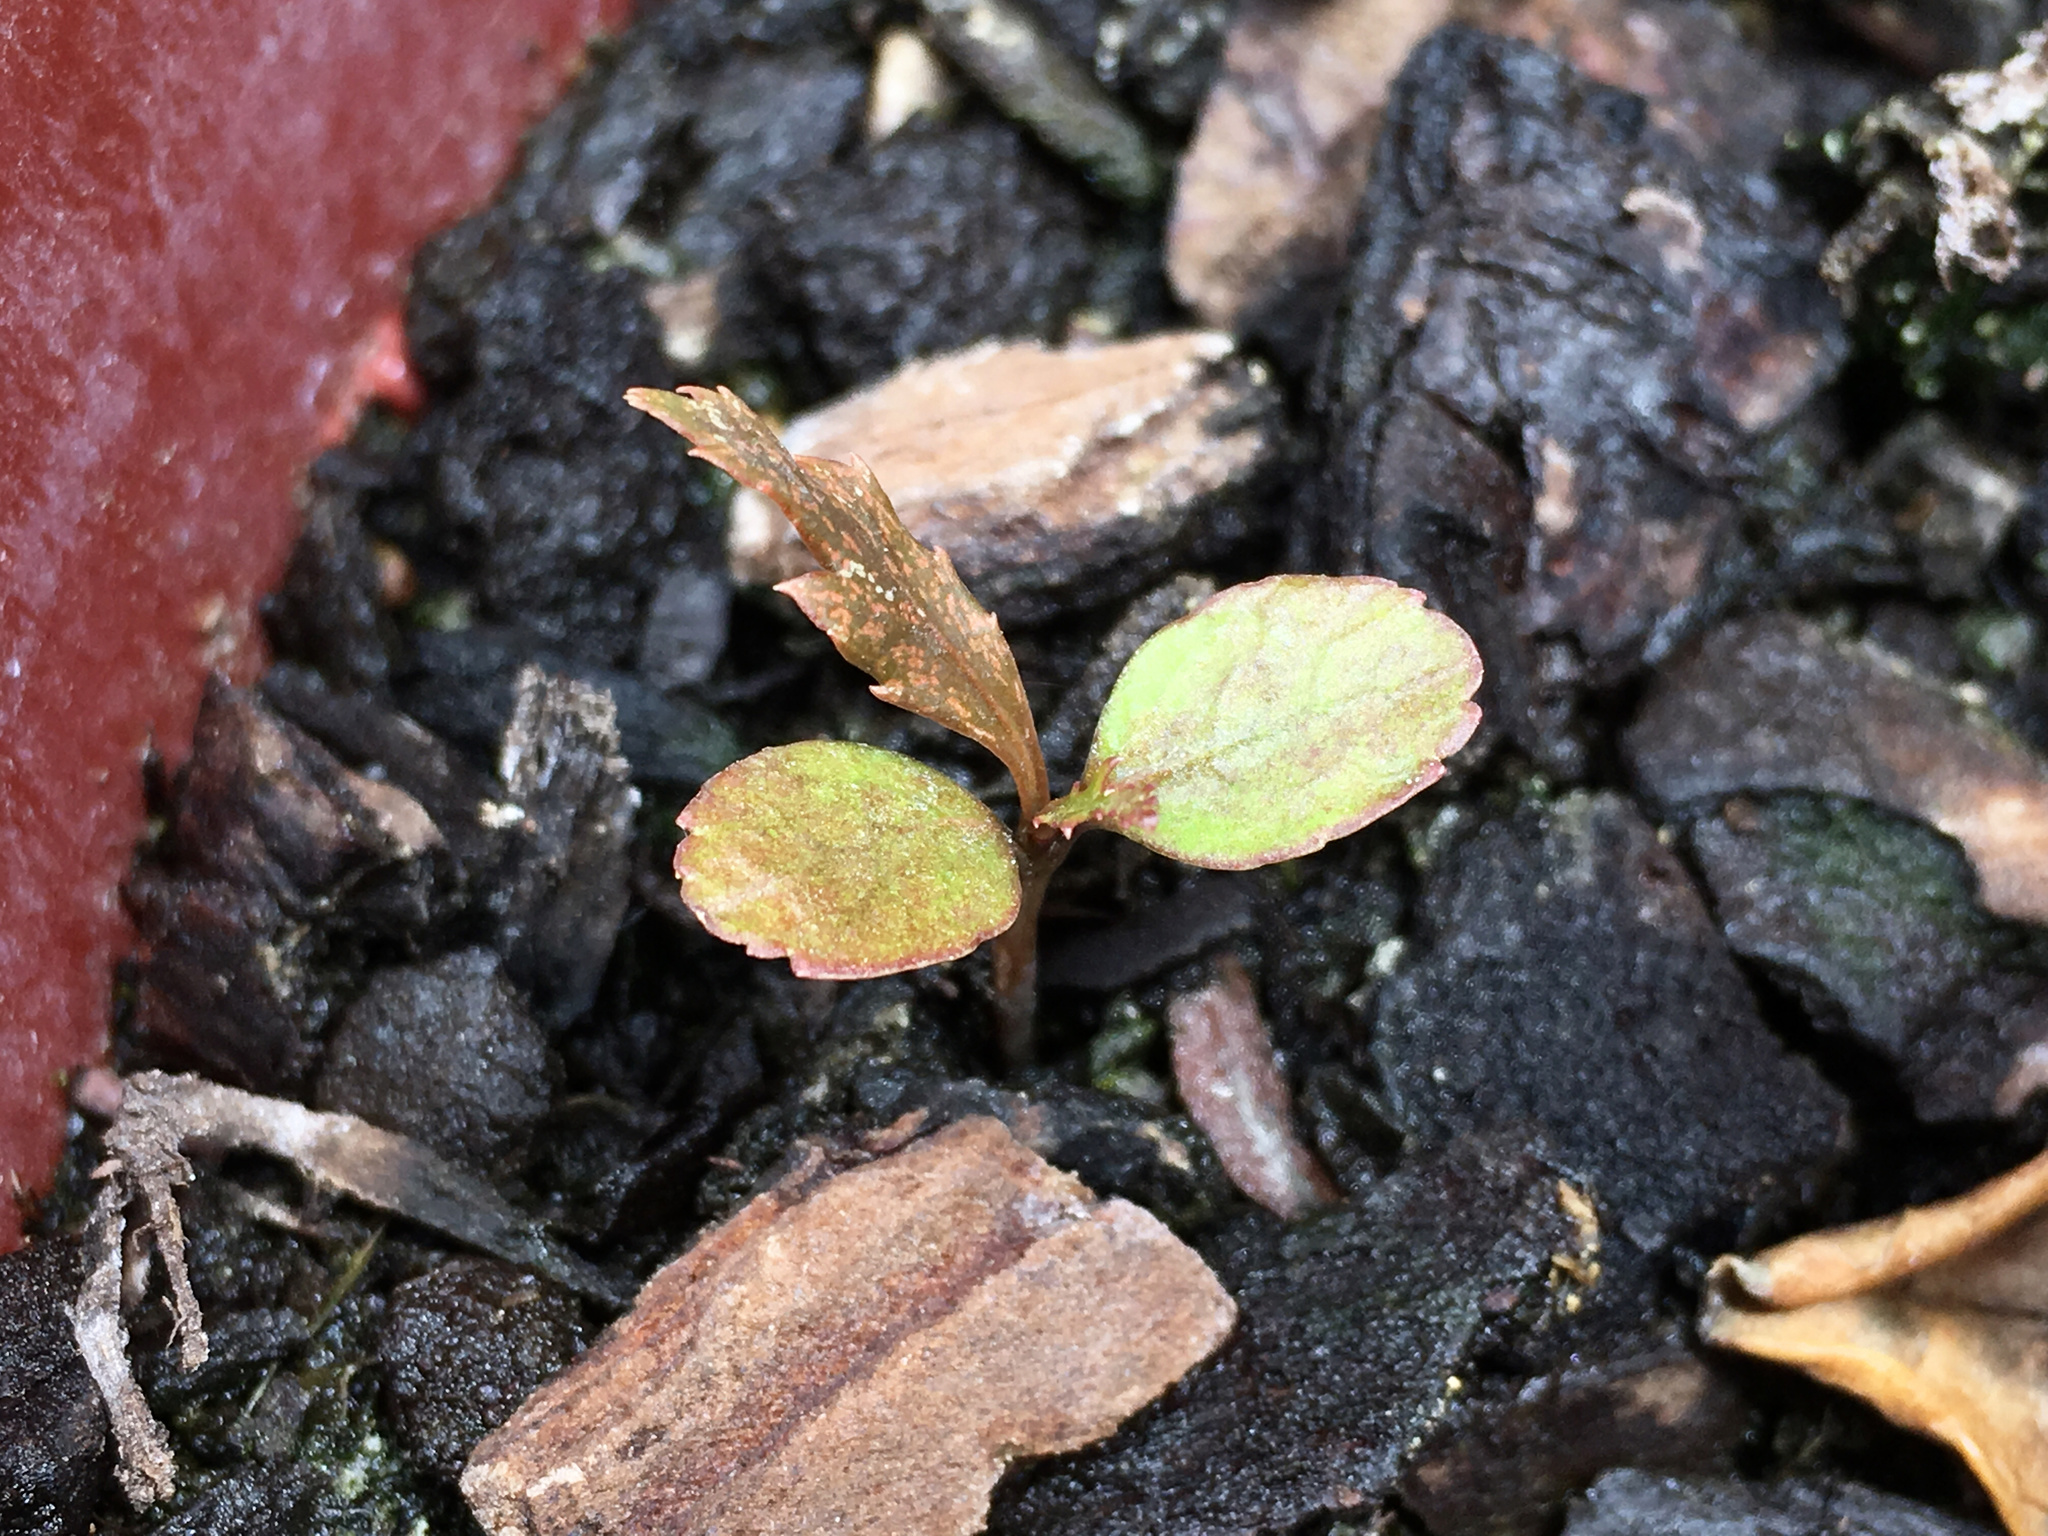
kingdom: Plantae
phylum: Tracheophyta
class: Magnoliopsida
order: Apiales
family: Araliaceae
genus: Pseudopanax
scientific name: Pseudopanax crassifolius
